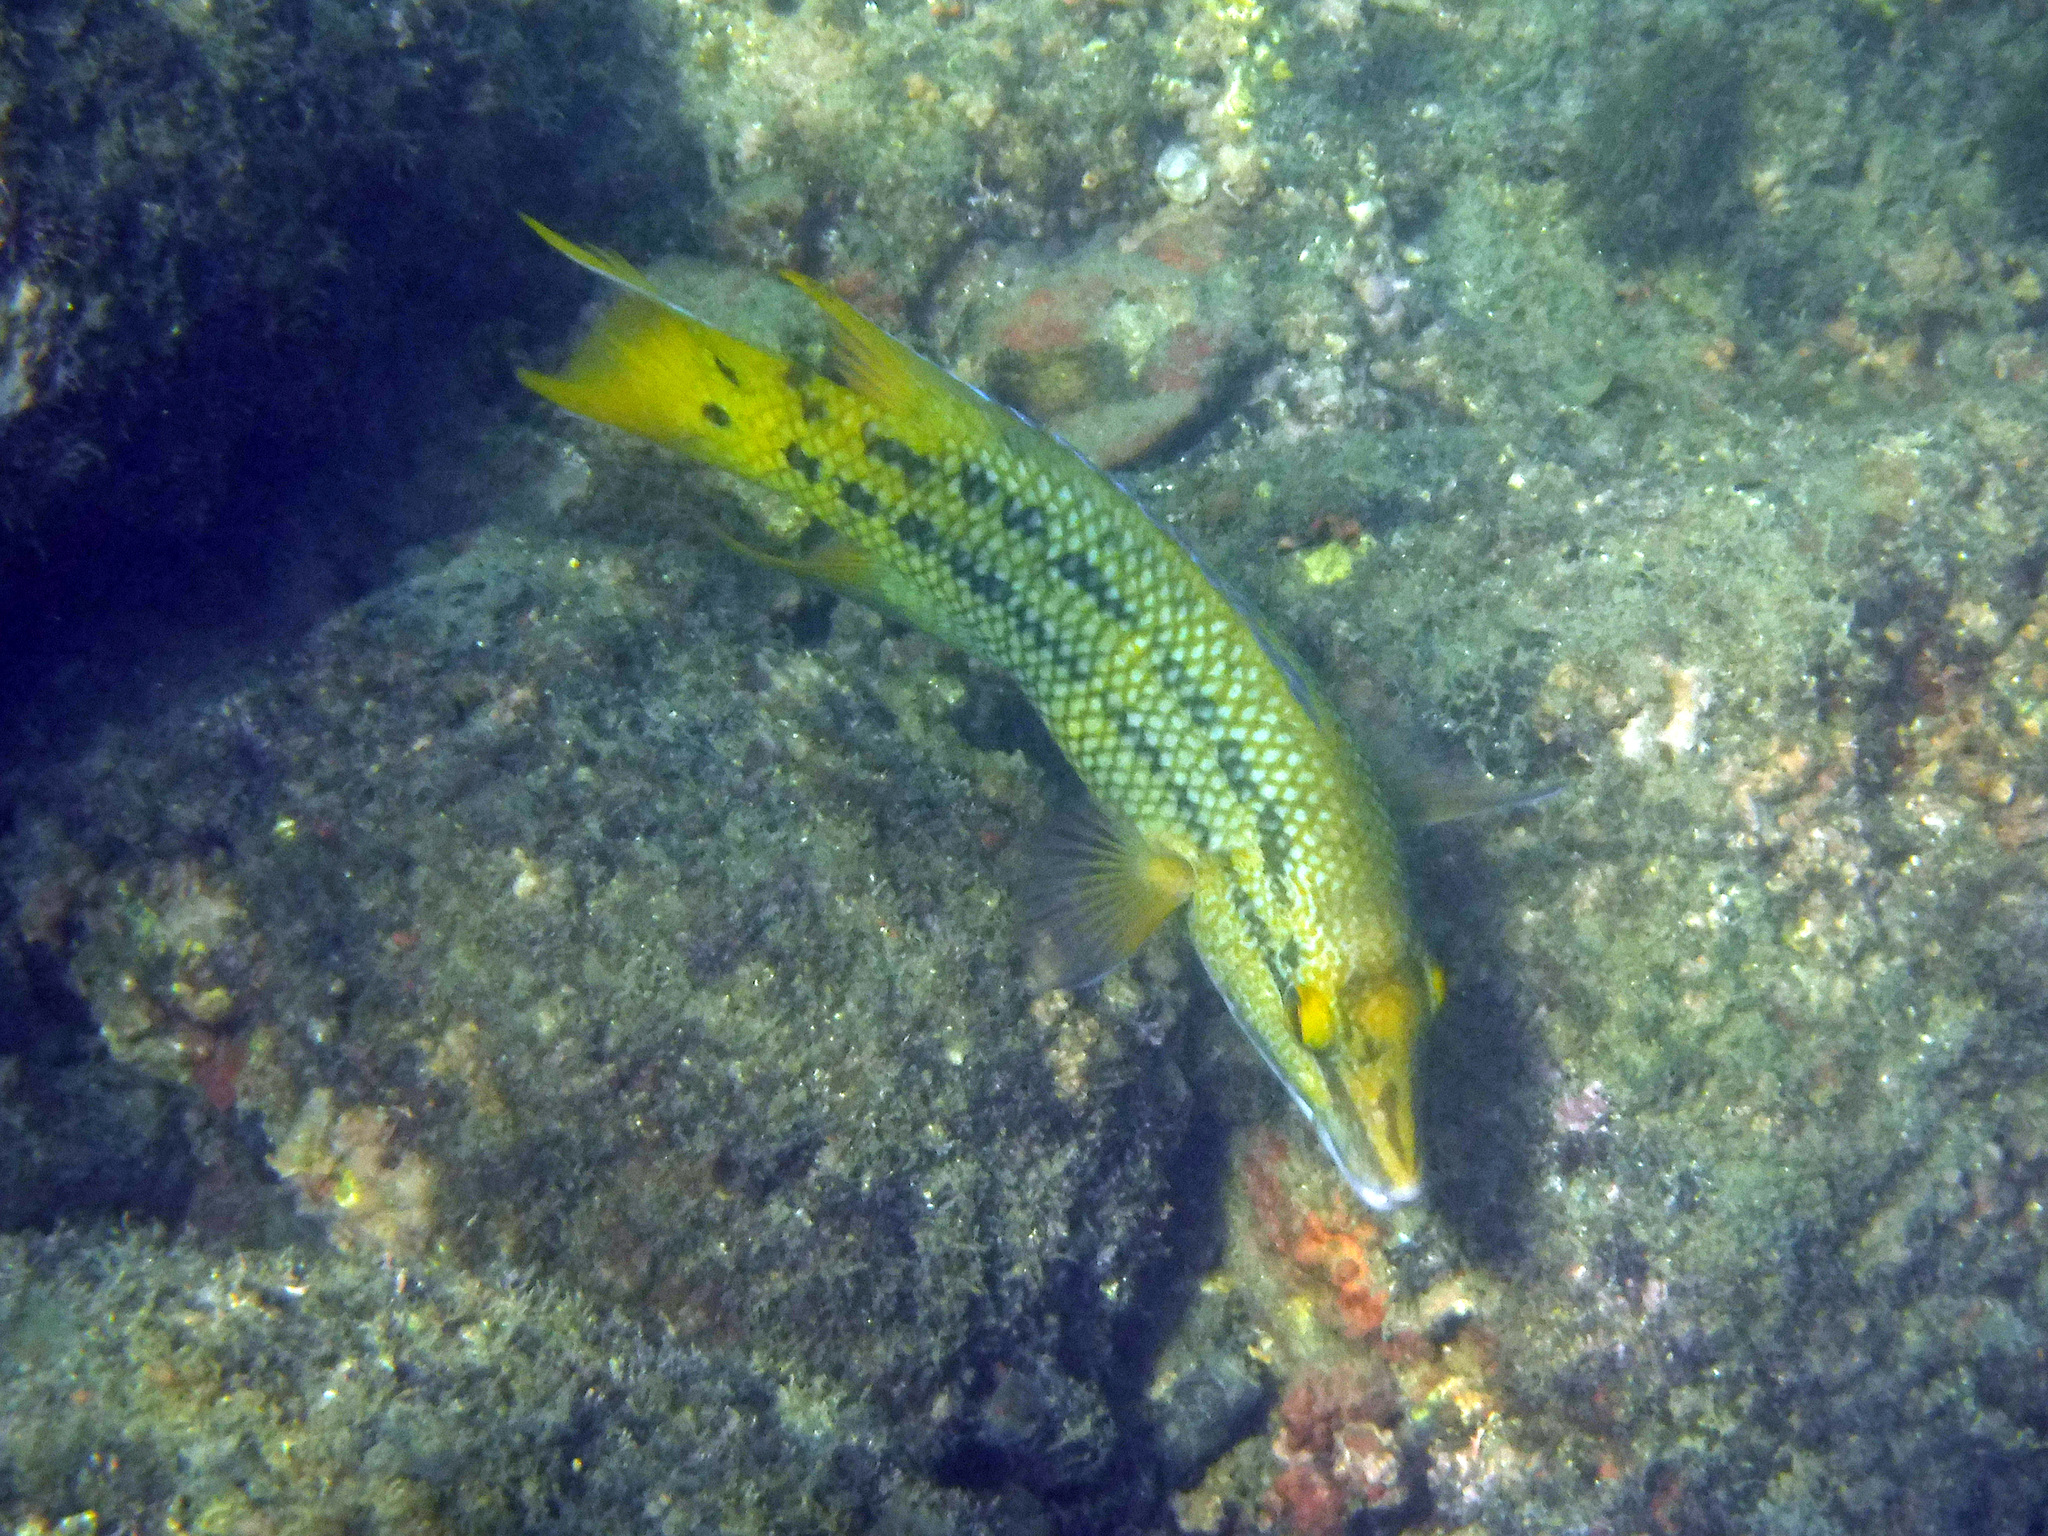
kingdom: Animalia
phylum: Chordata
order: Perciformes
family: Labridae
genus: Bodianus
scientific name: Bodianus diplotaenia
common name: Mexican hogfish
